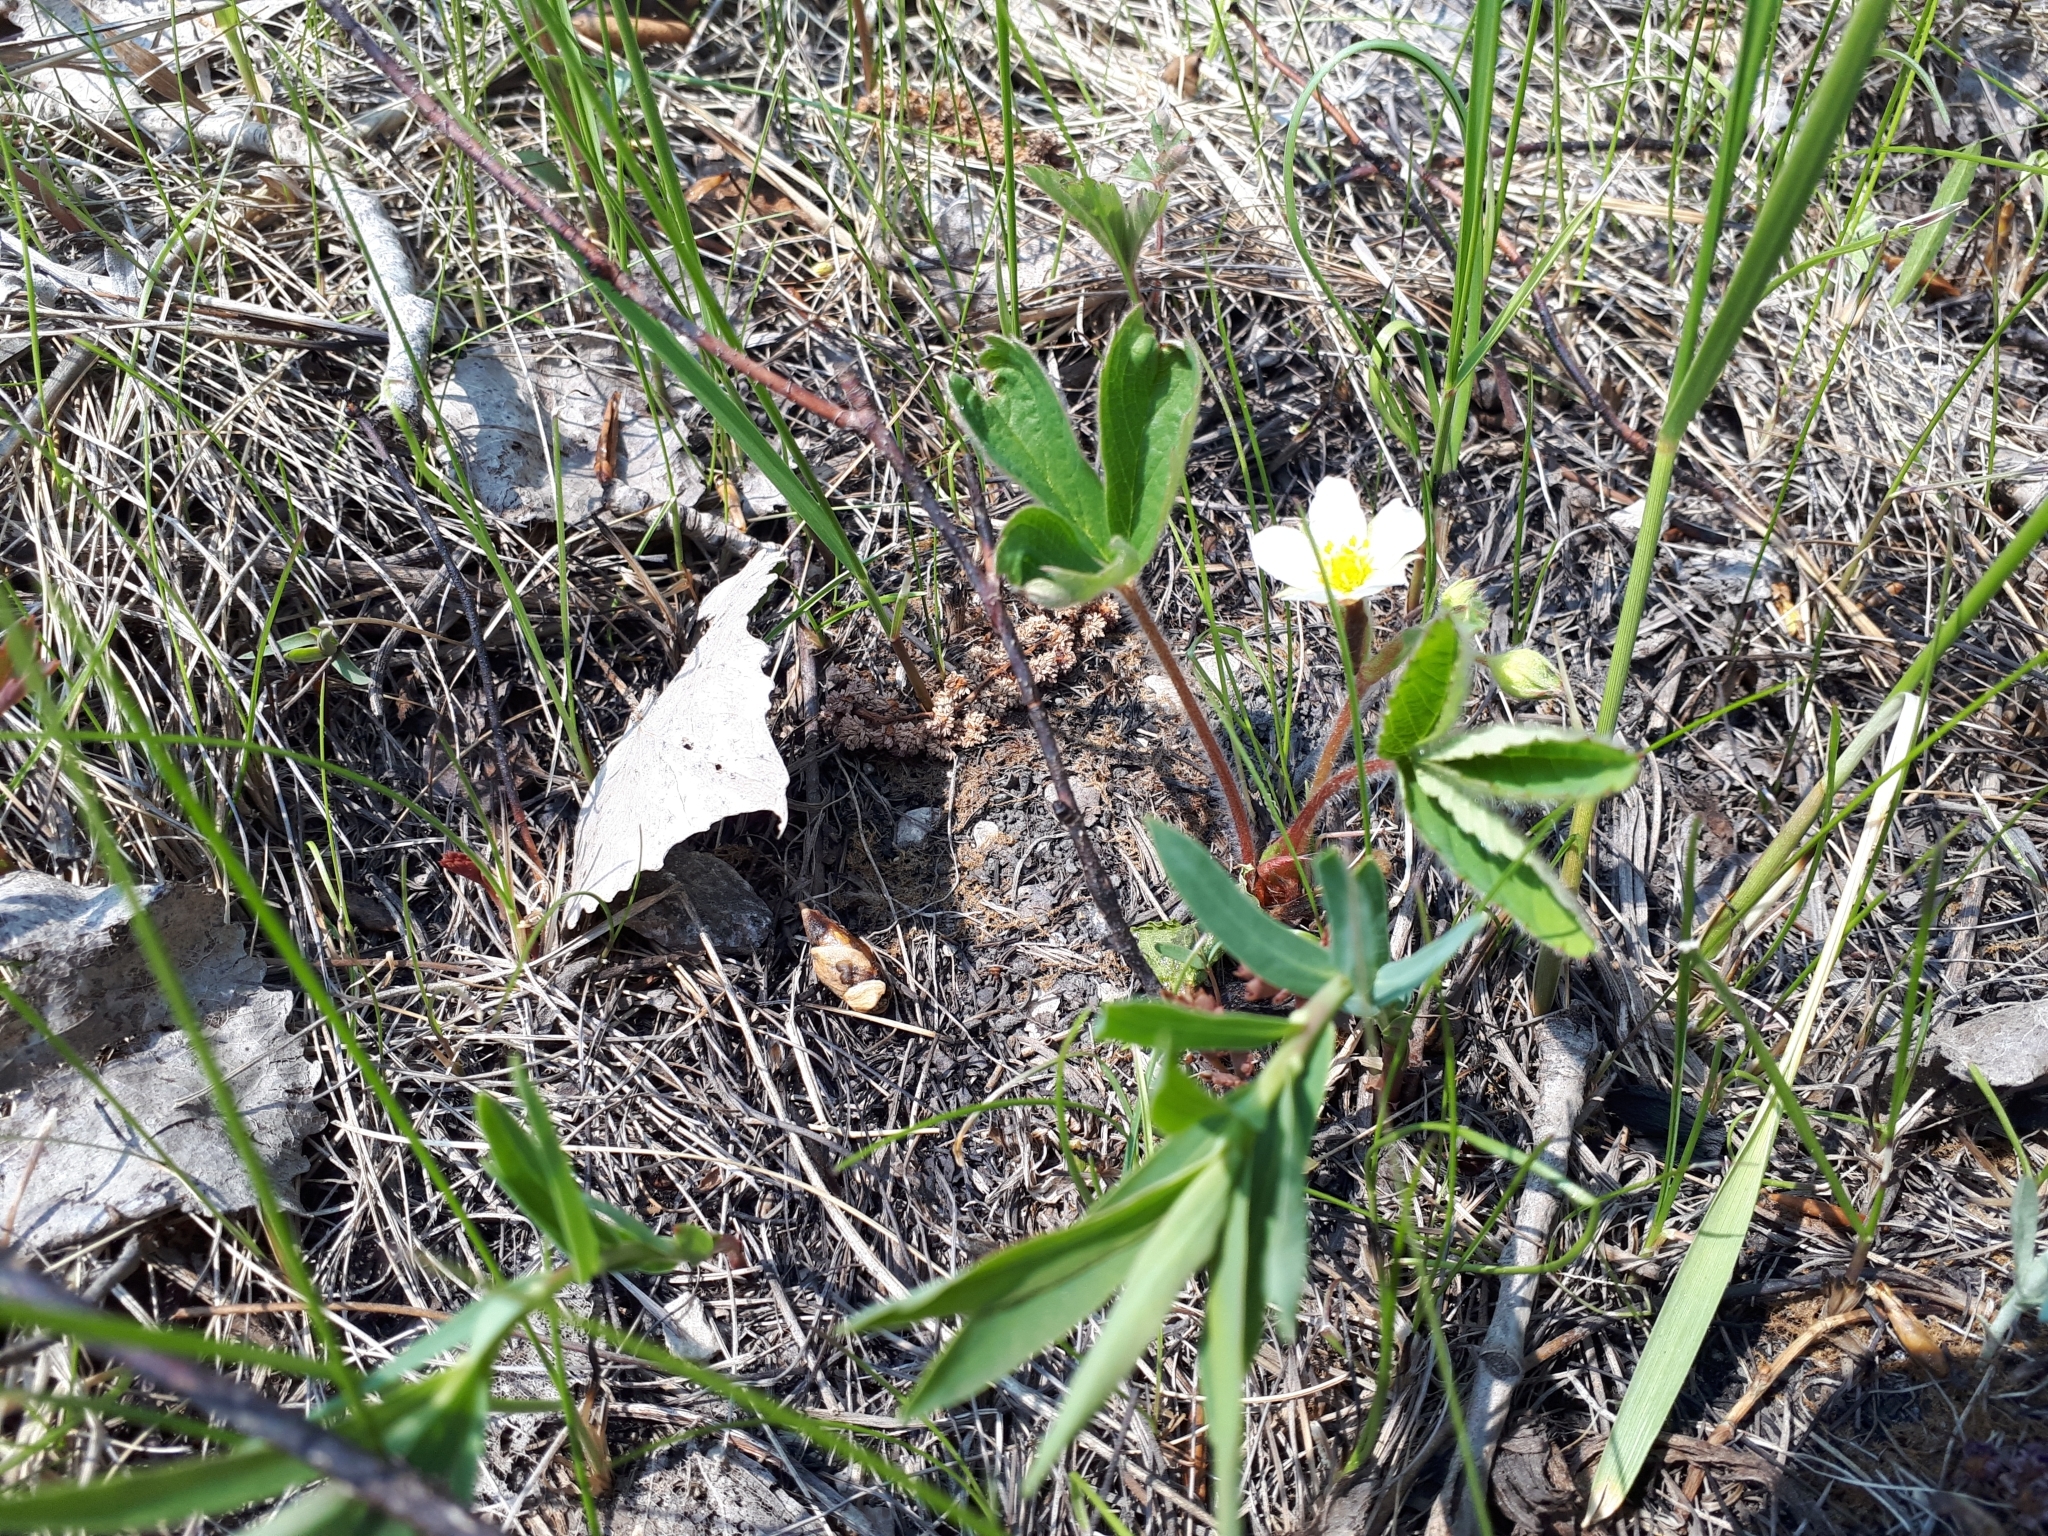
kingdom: Plantae
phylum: Tracheophyta
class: Magnoliopsida
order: Rosales
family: Rosaceae
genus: Fragaria
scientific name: Fragaria virginiana
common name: Thickleaved wild strawberry
